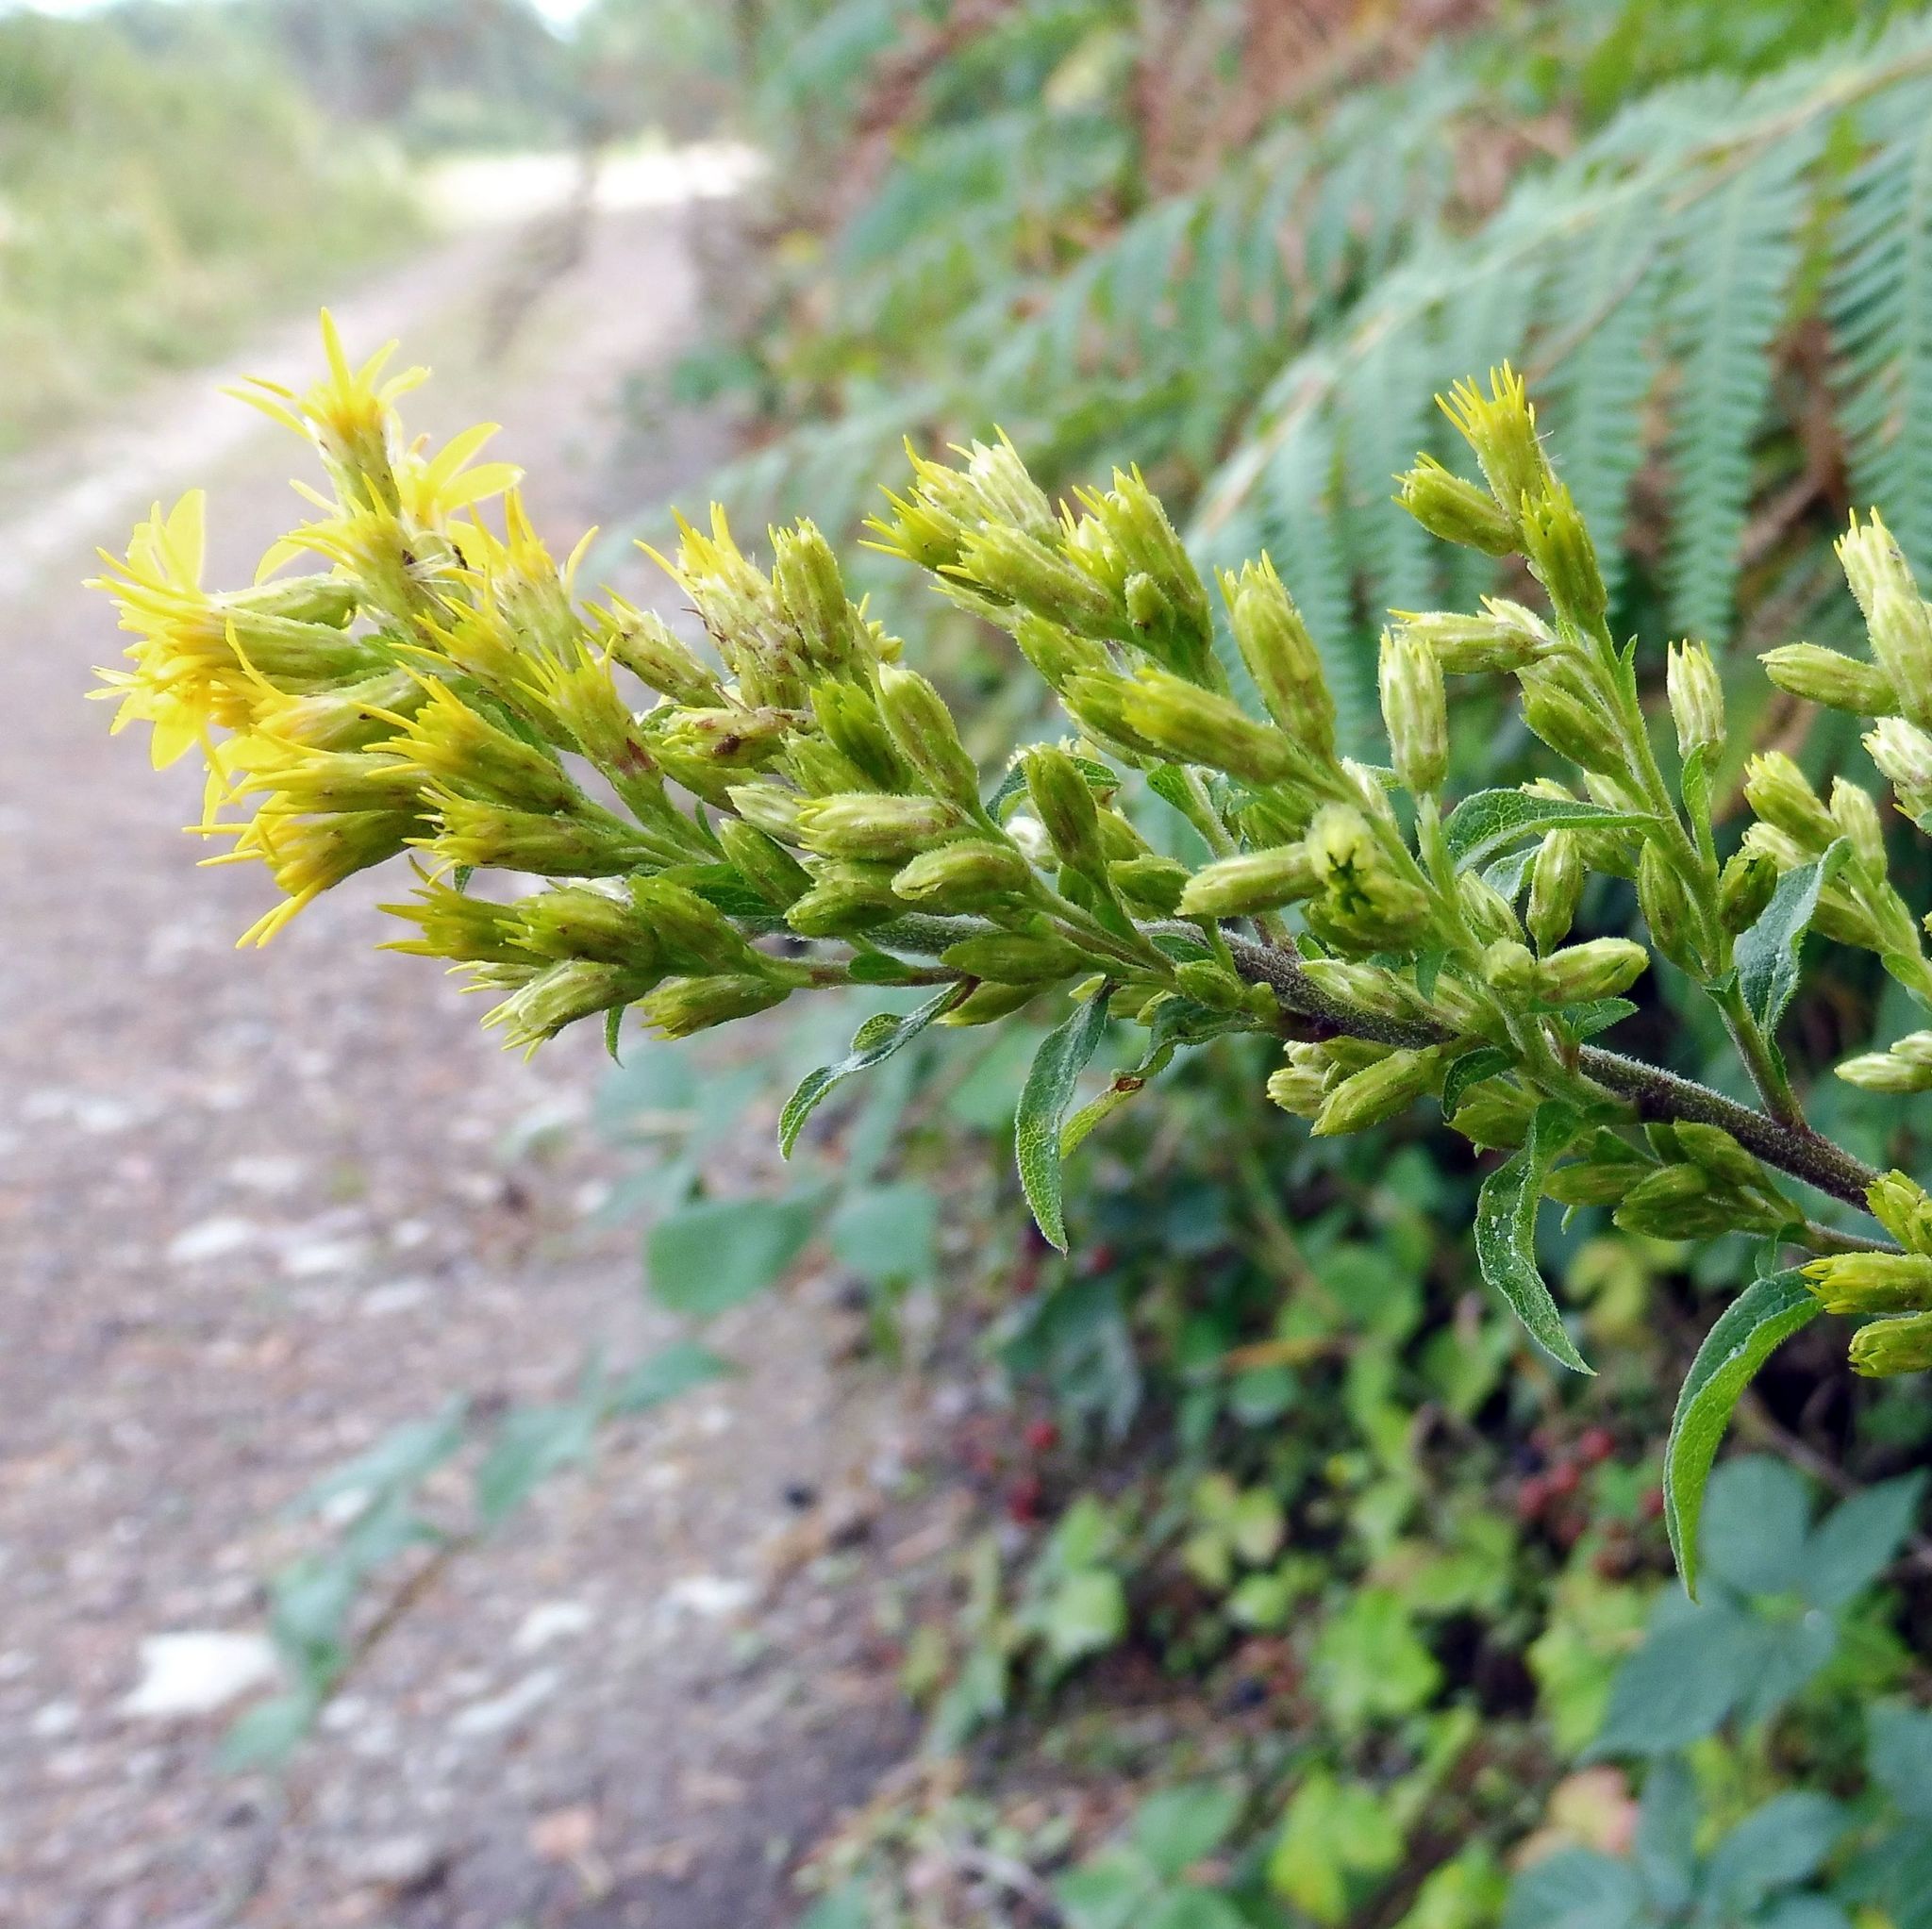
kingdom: Plantae
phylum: Tracheophyta
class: Magnoliopsida
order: Asterales
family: Asteraceae
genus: Solidago
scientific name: Solidago virgaurea
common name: Goldenrod
